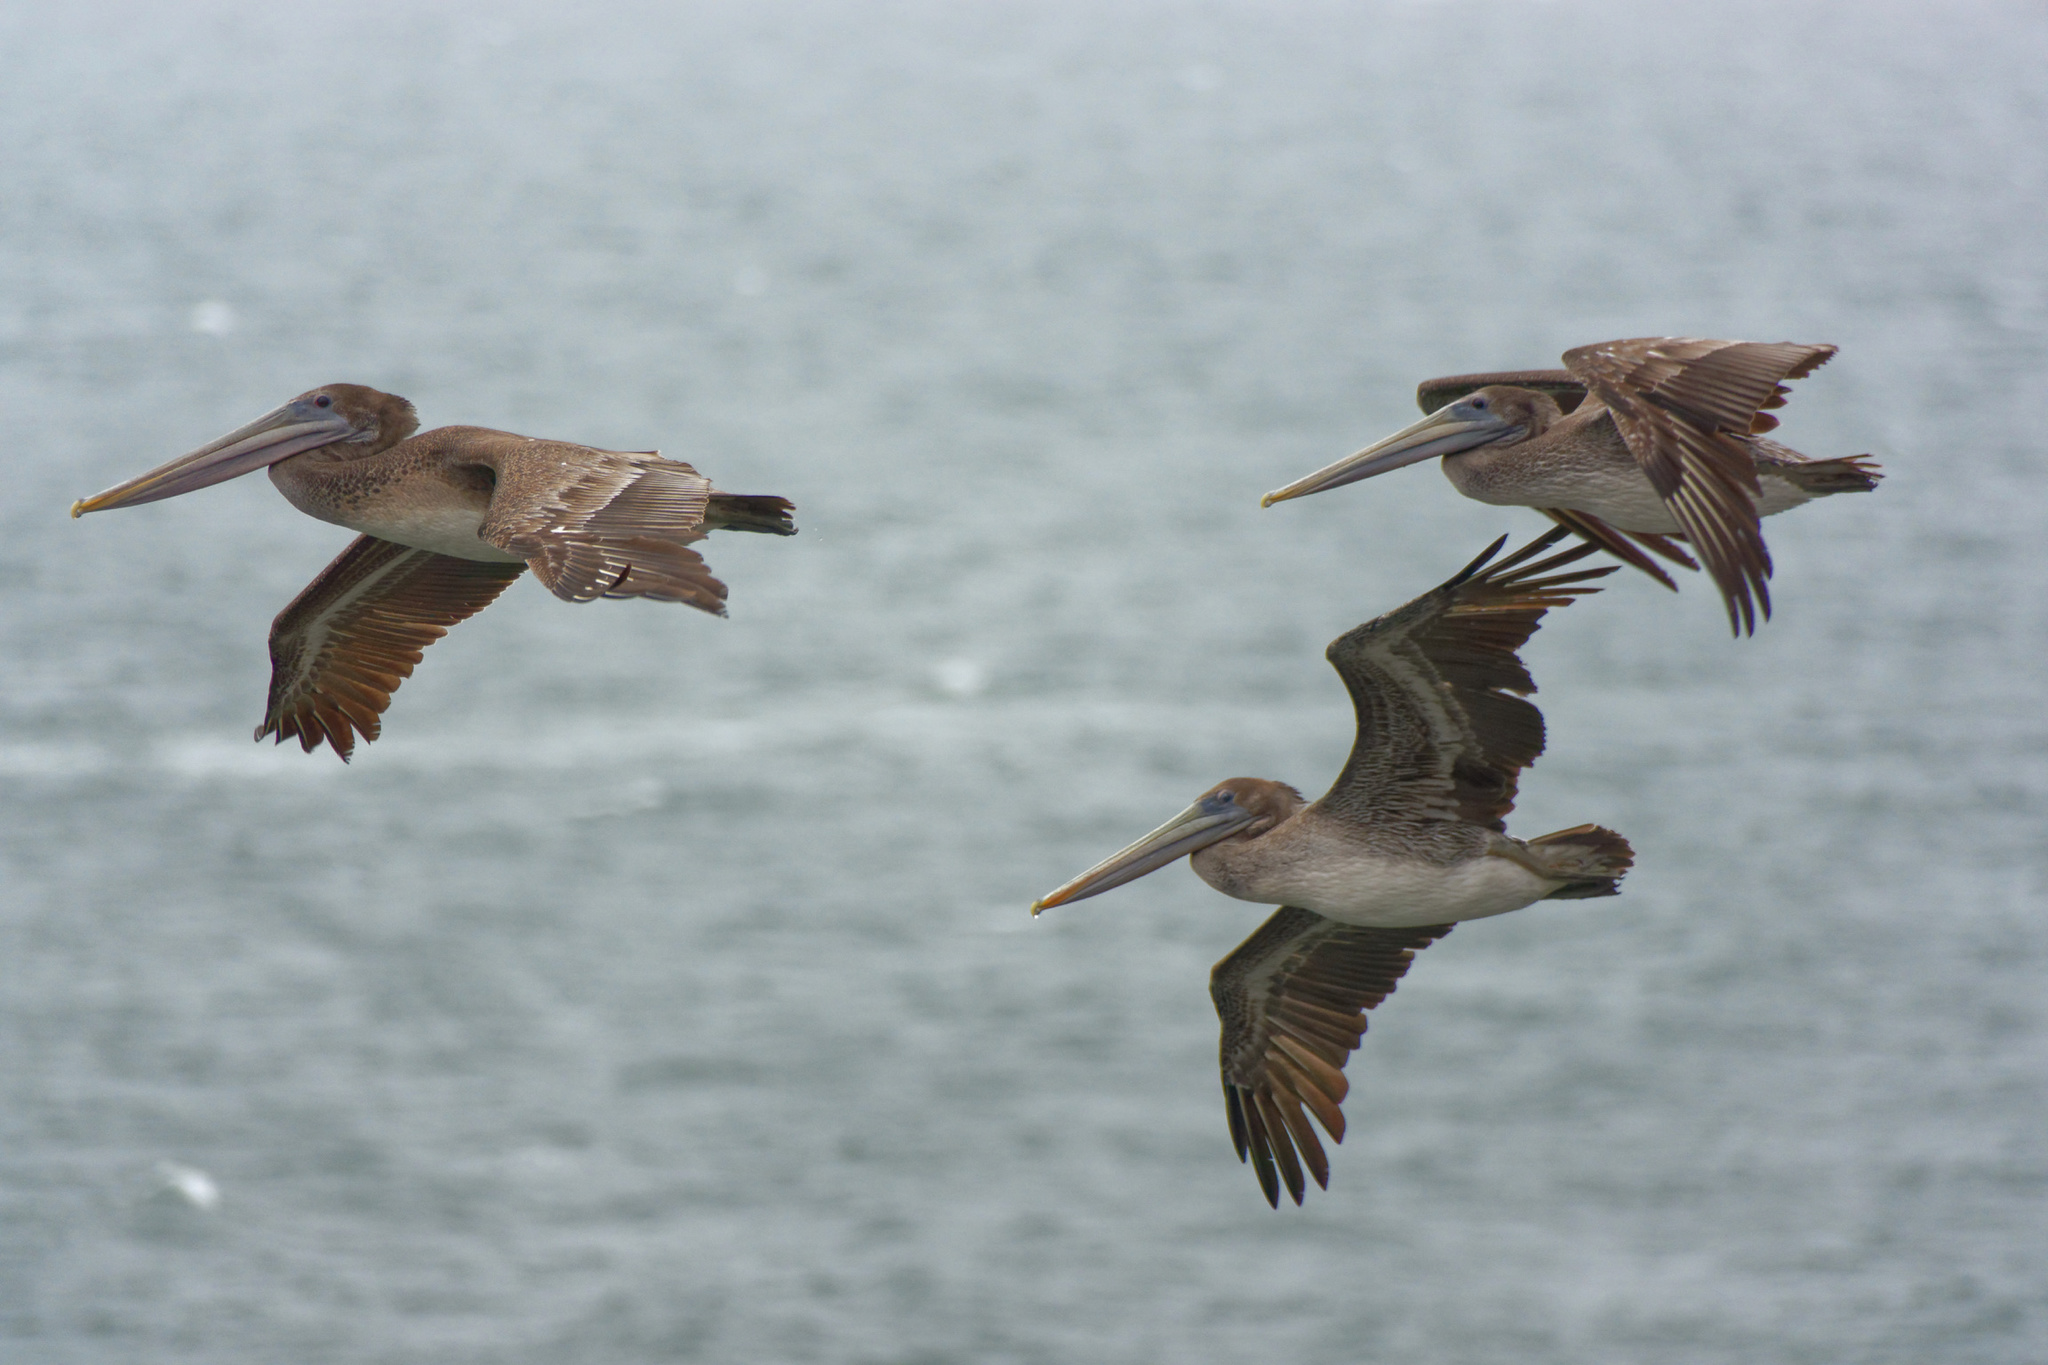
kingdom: Animalia
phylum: Chordata
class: Aves
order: Pelecaniformes
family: Pelecanidae
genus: Pelecanus
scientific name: Pelecanus occidentalis
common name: Brown pelican
